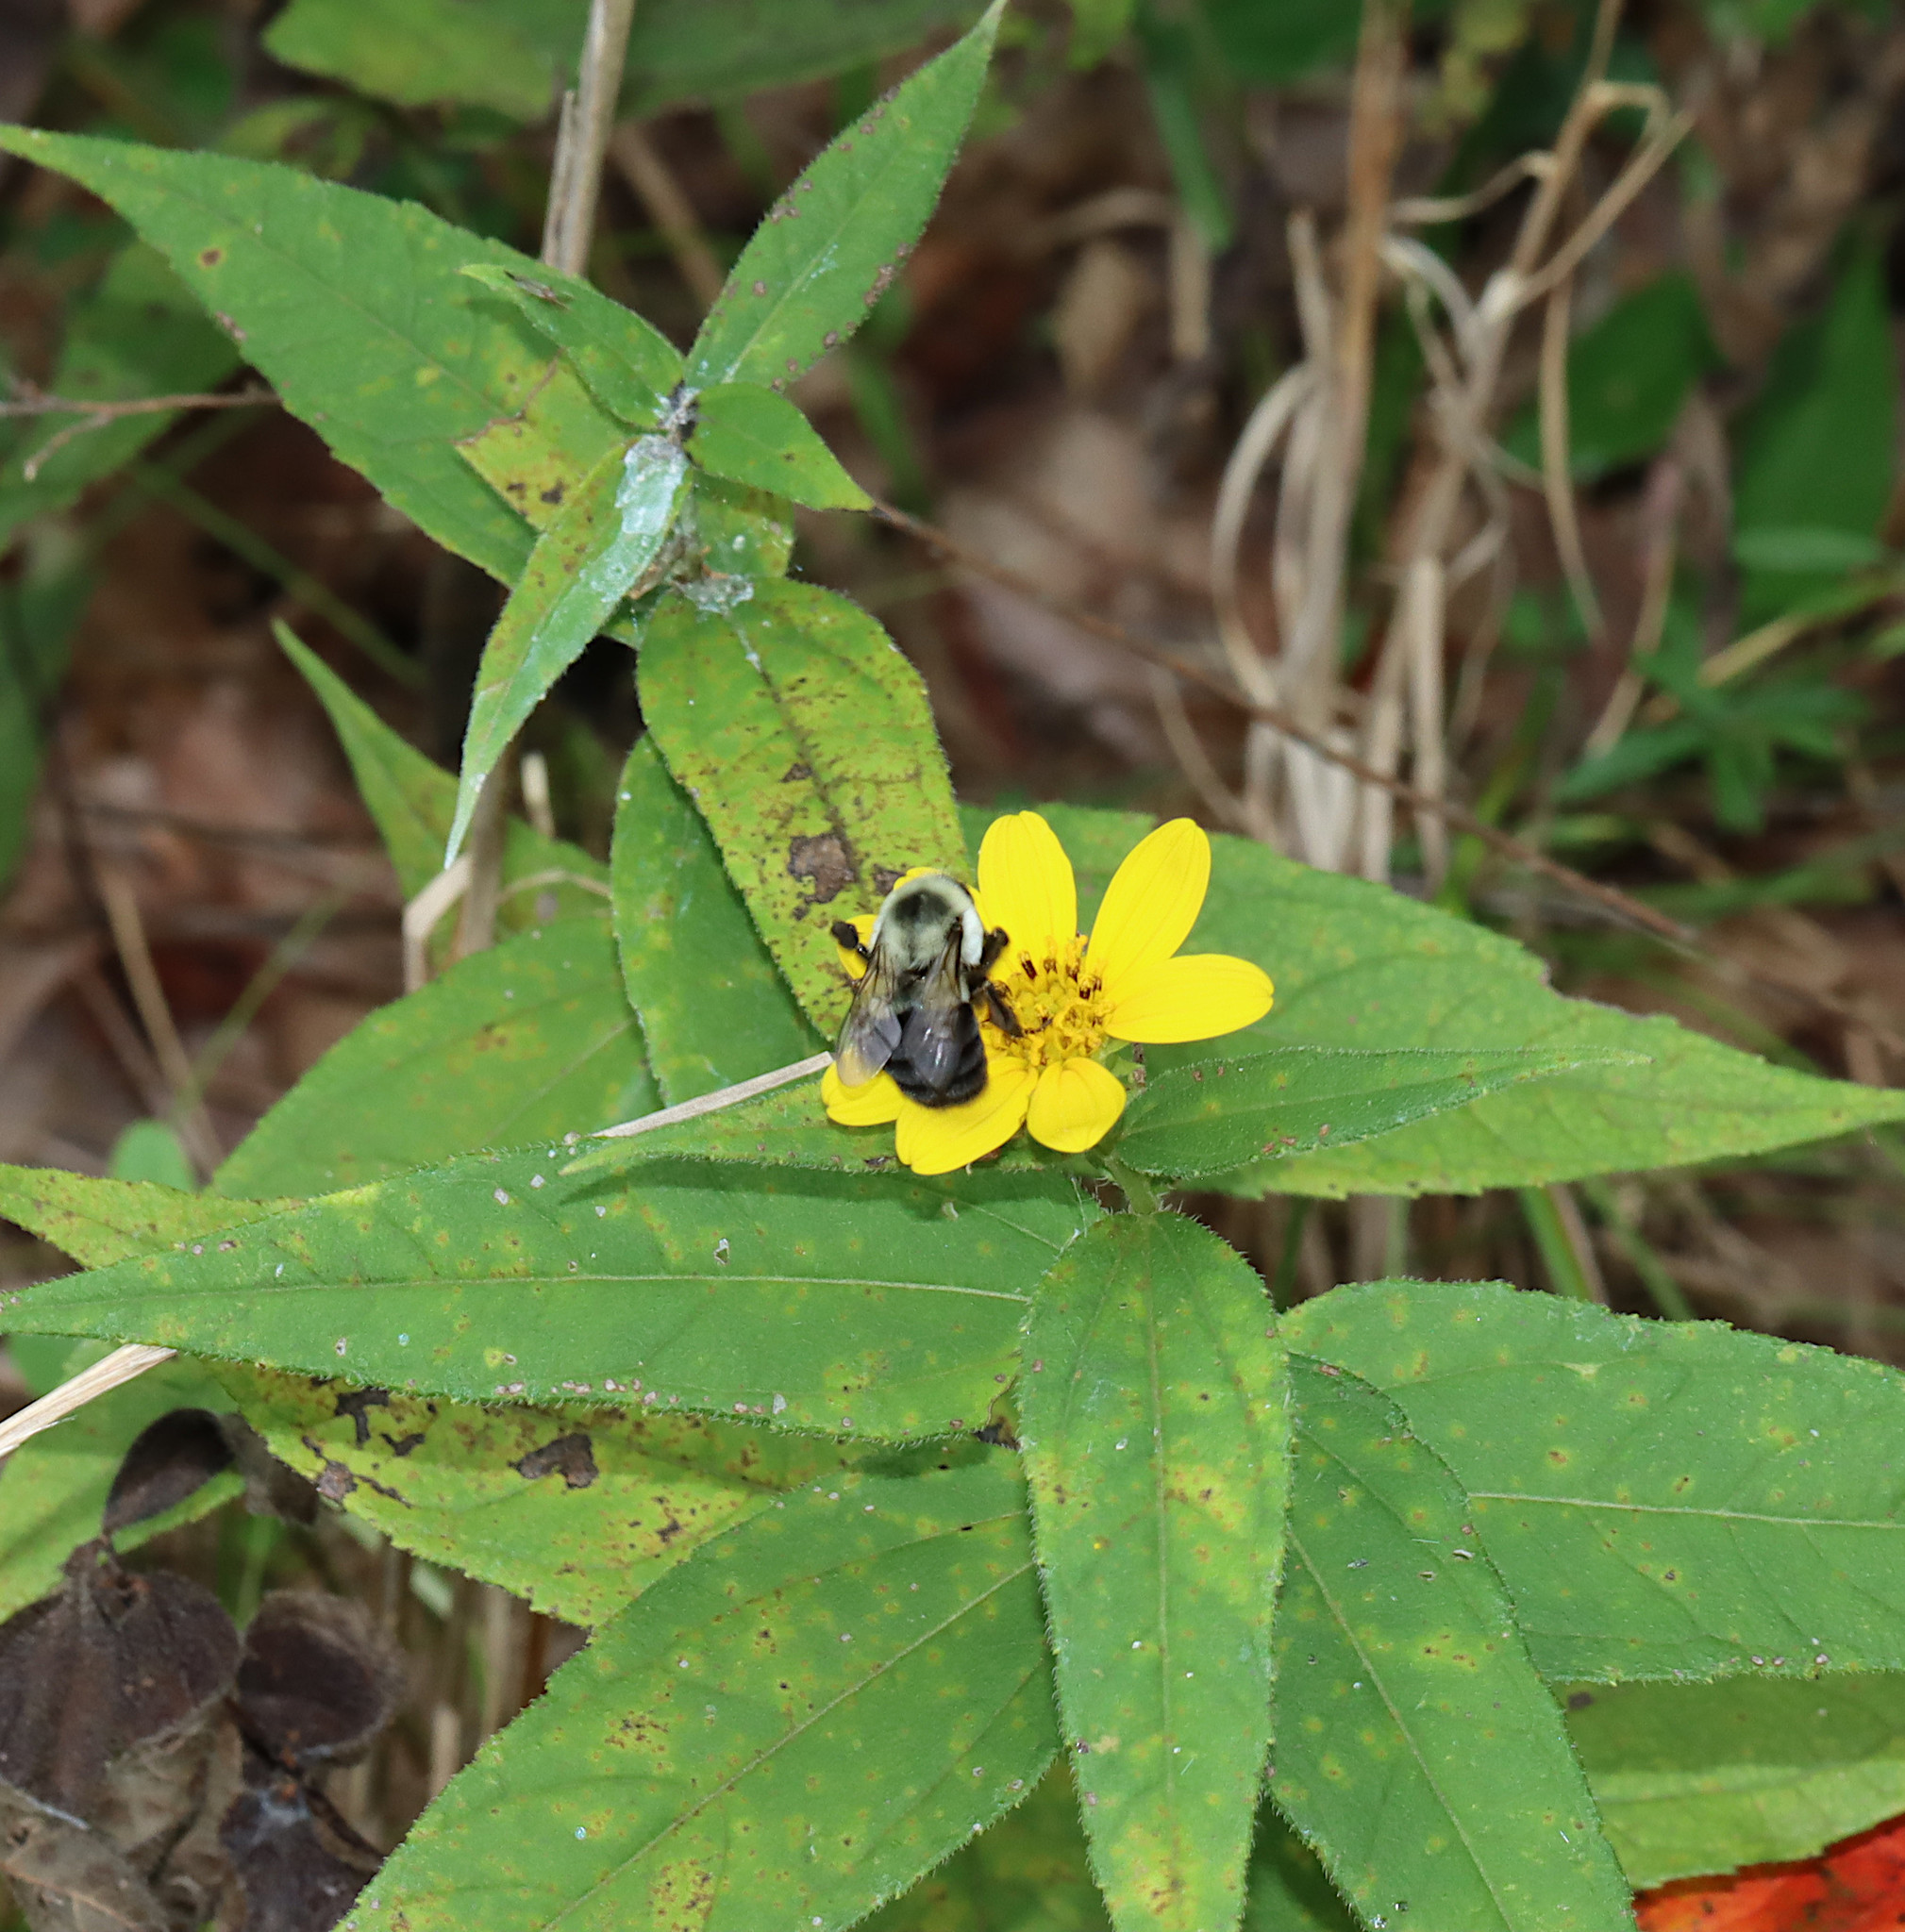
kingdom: Animalia
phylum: Arthropoda
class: Insecta
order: Hymenoptera
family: Apidae
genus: Bombus
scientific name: Bombus impatiens
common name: Common eastern bumble bee
